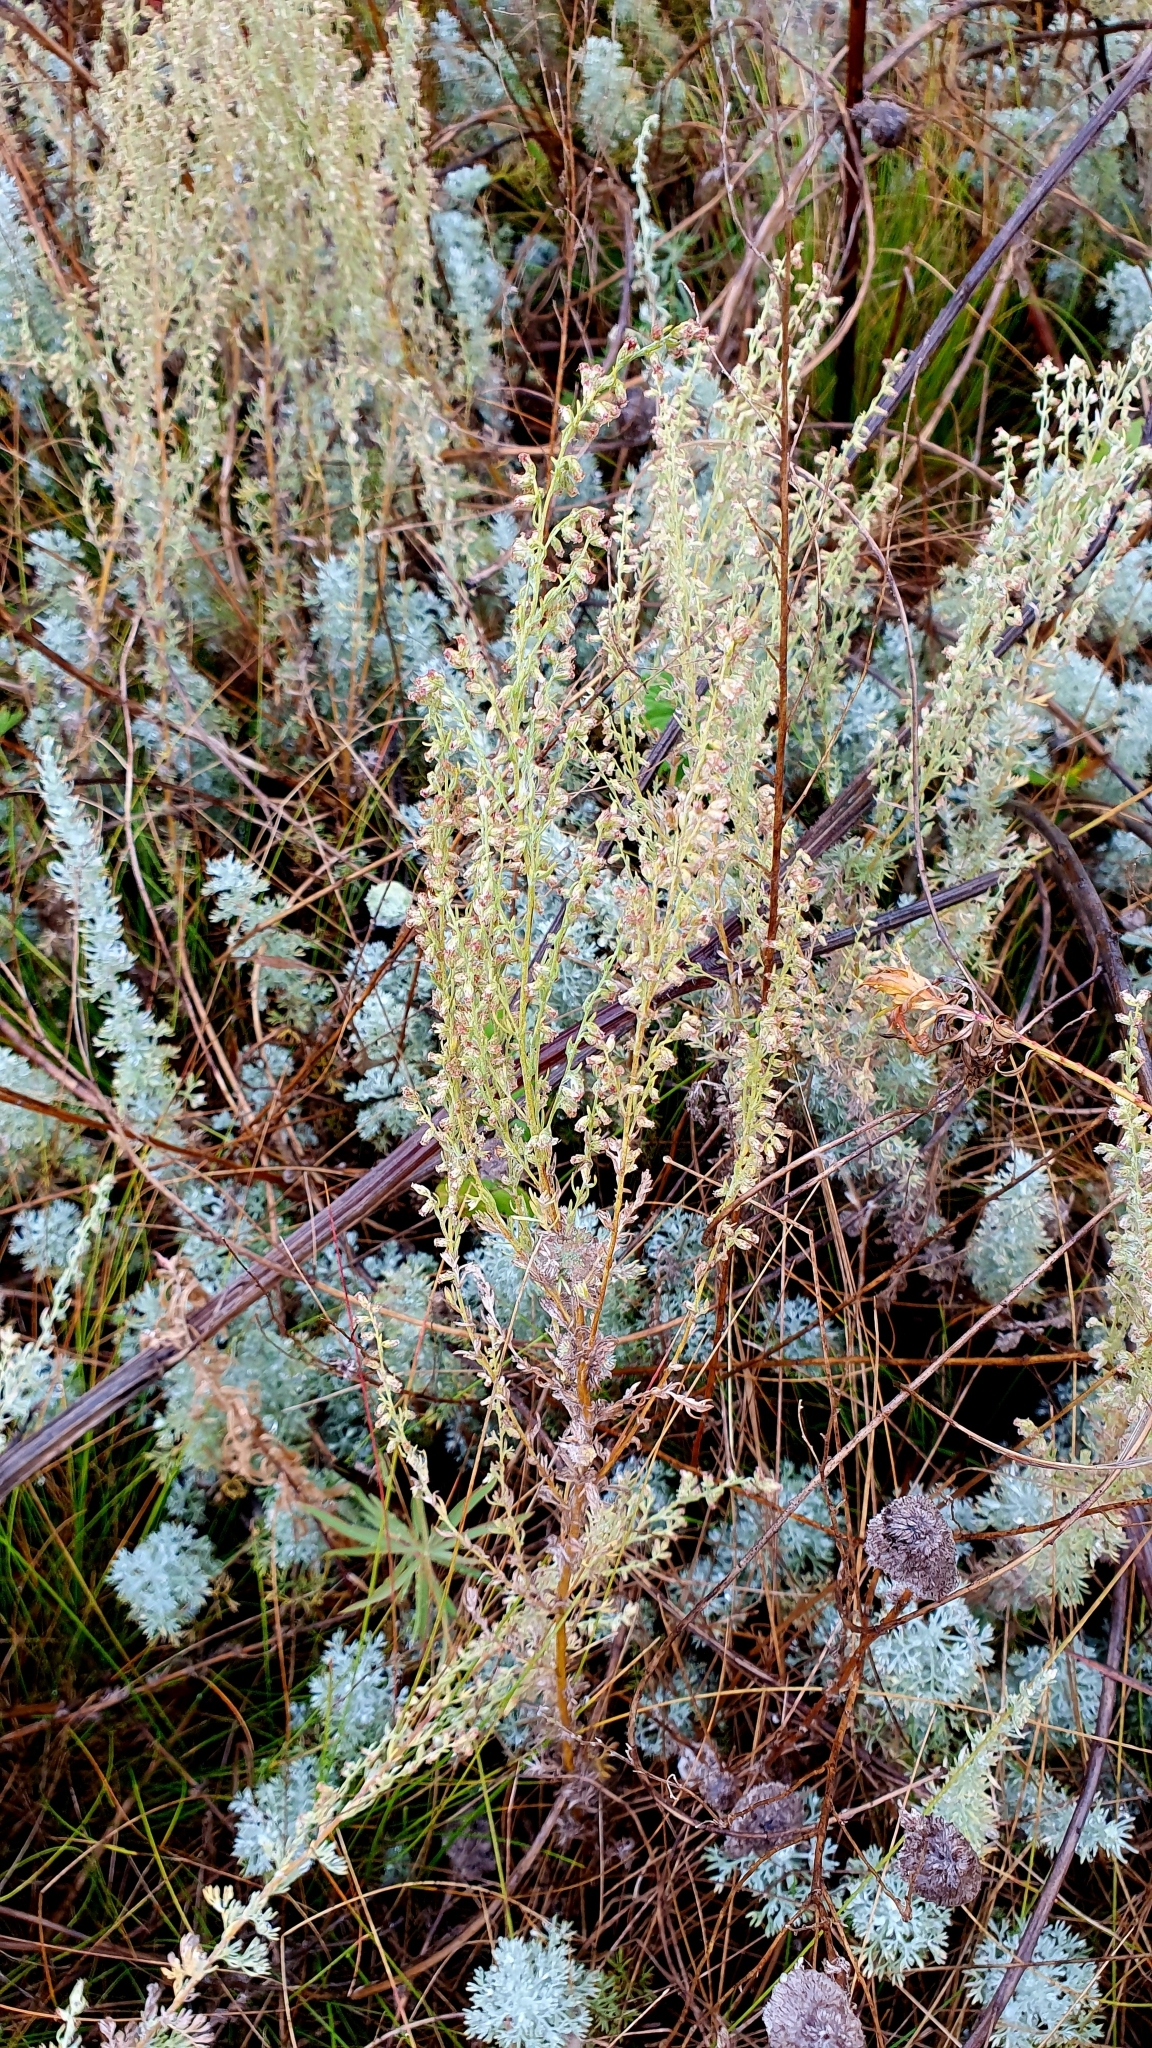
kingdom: Plantae
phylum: Tracheophyta
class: Magnoliopsida
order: Asterales
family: Asteraceae
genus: Artemisia
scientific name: Artemisia austriaca
